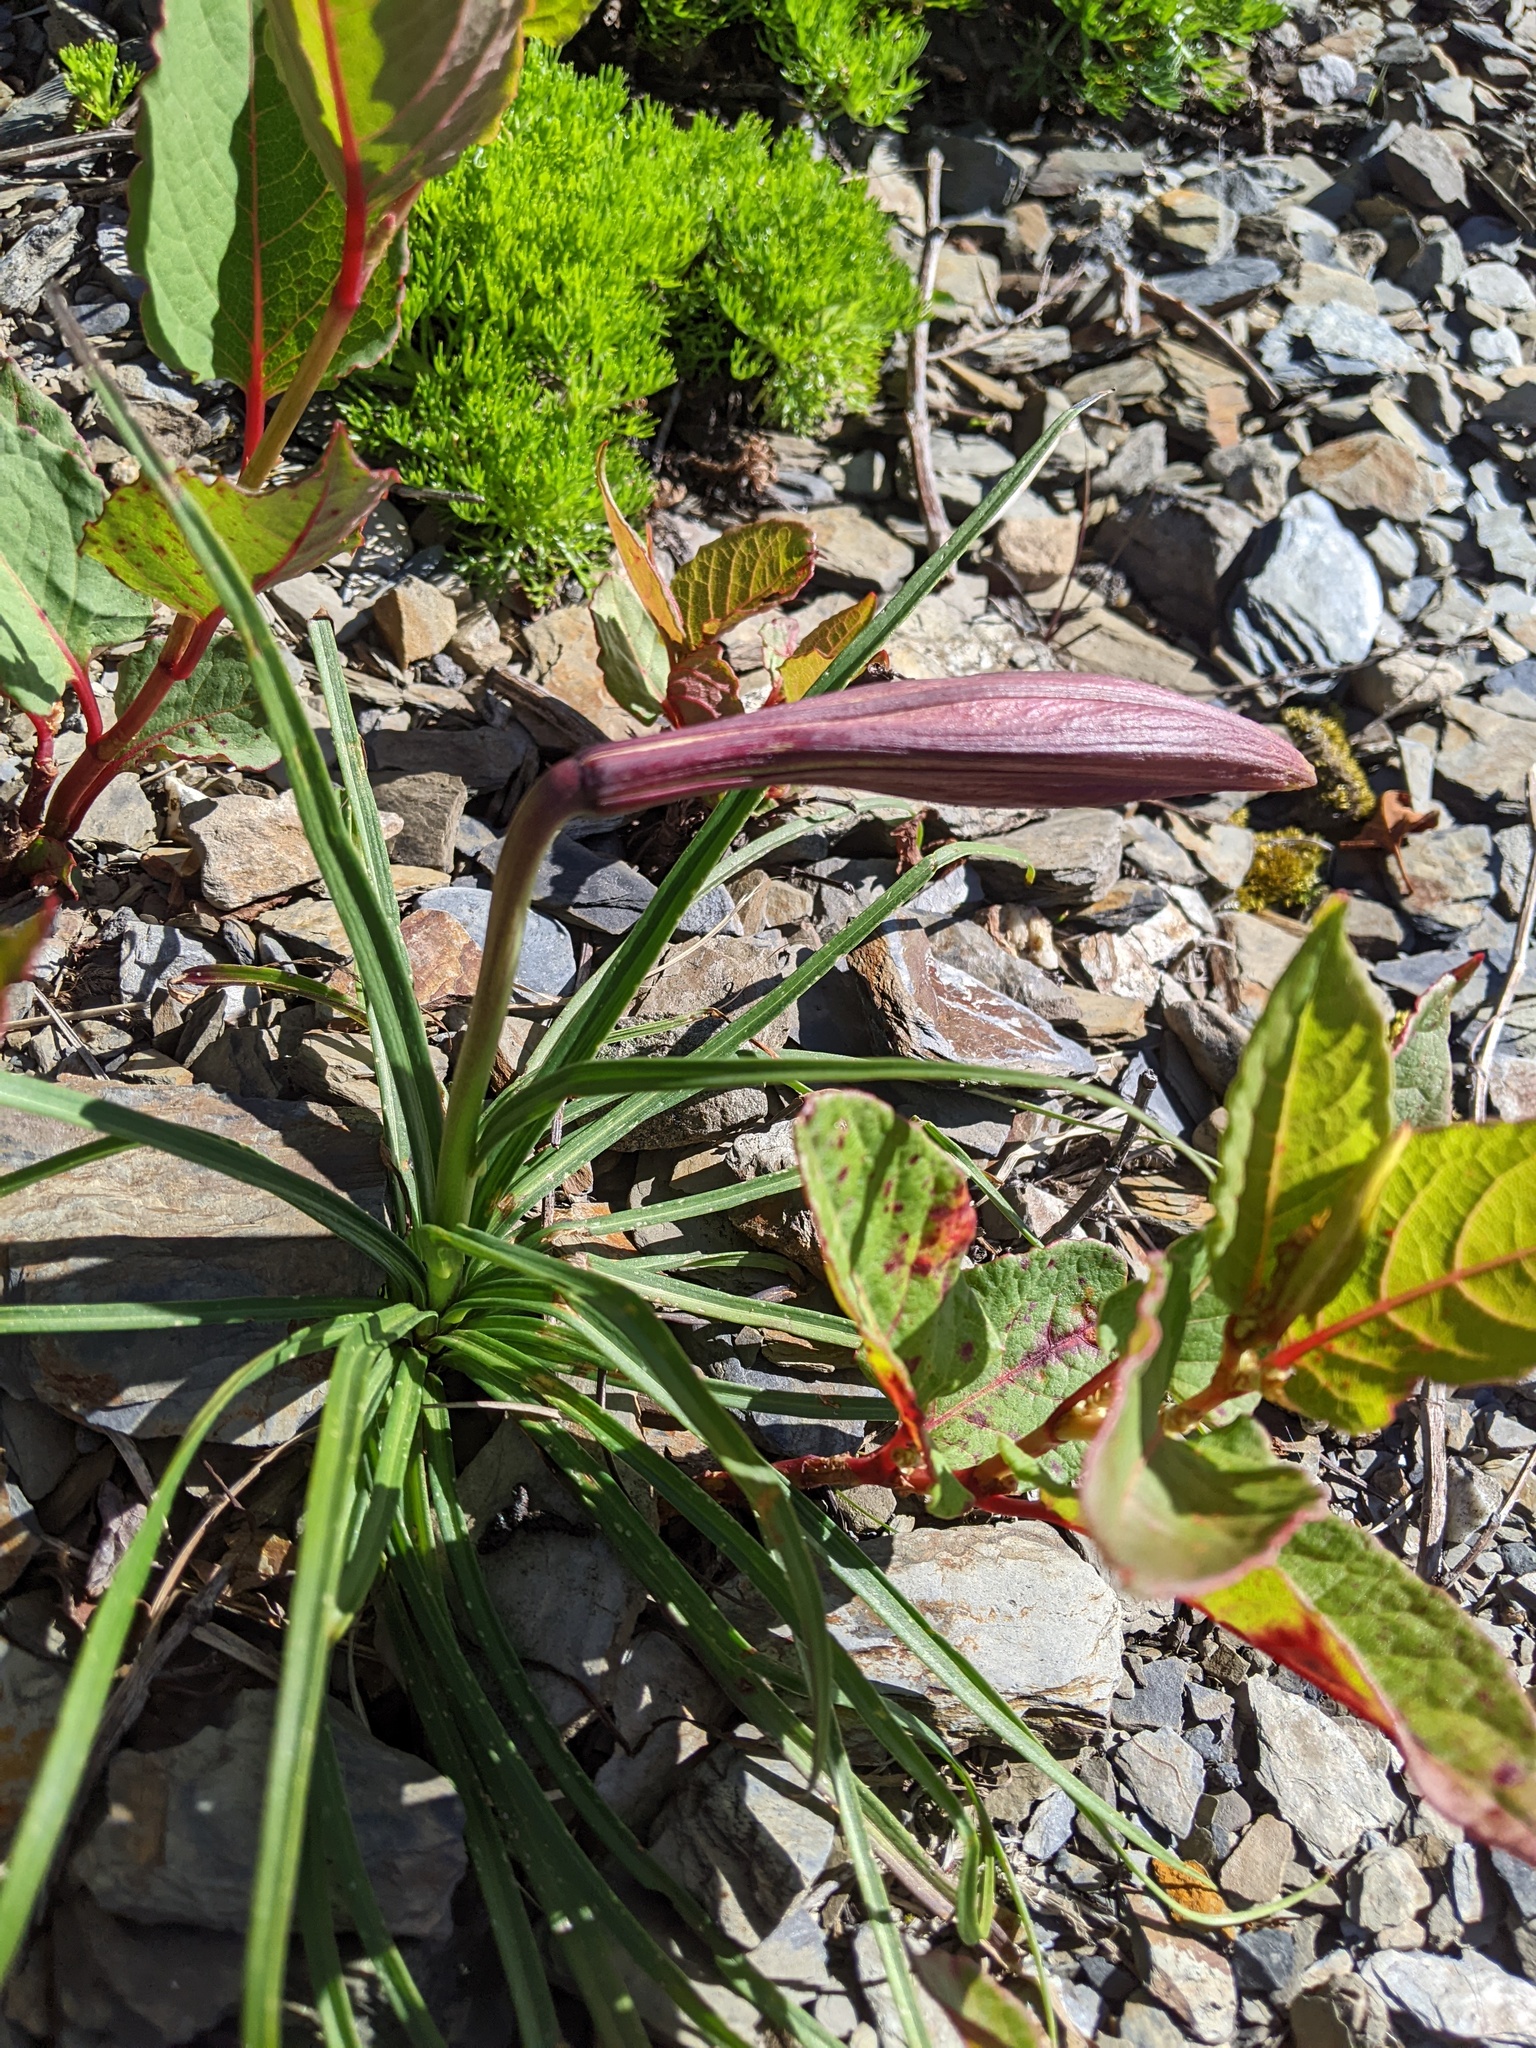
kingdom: Plantae
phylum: Tracheophyta
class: Liliopsida
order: Liliales
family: Liliaceae
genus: Lilium
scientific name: Lilium formosanum
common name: Formosa lily
